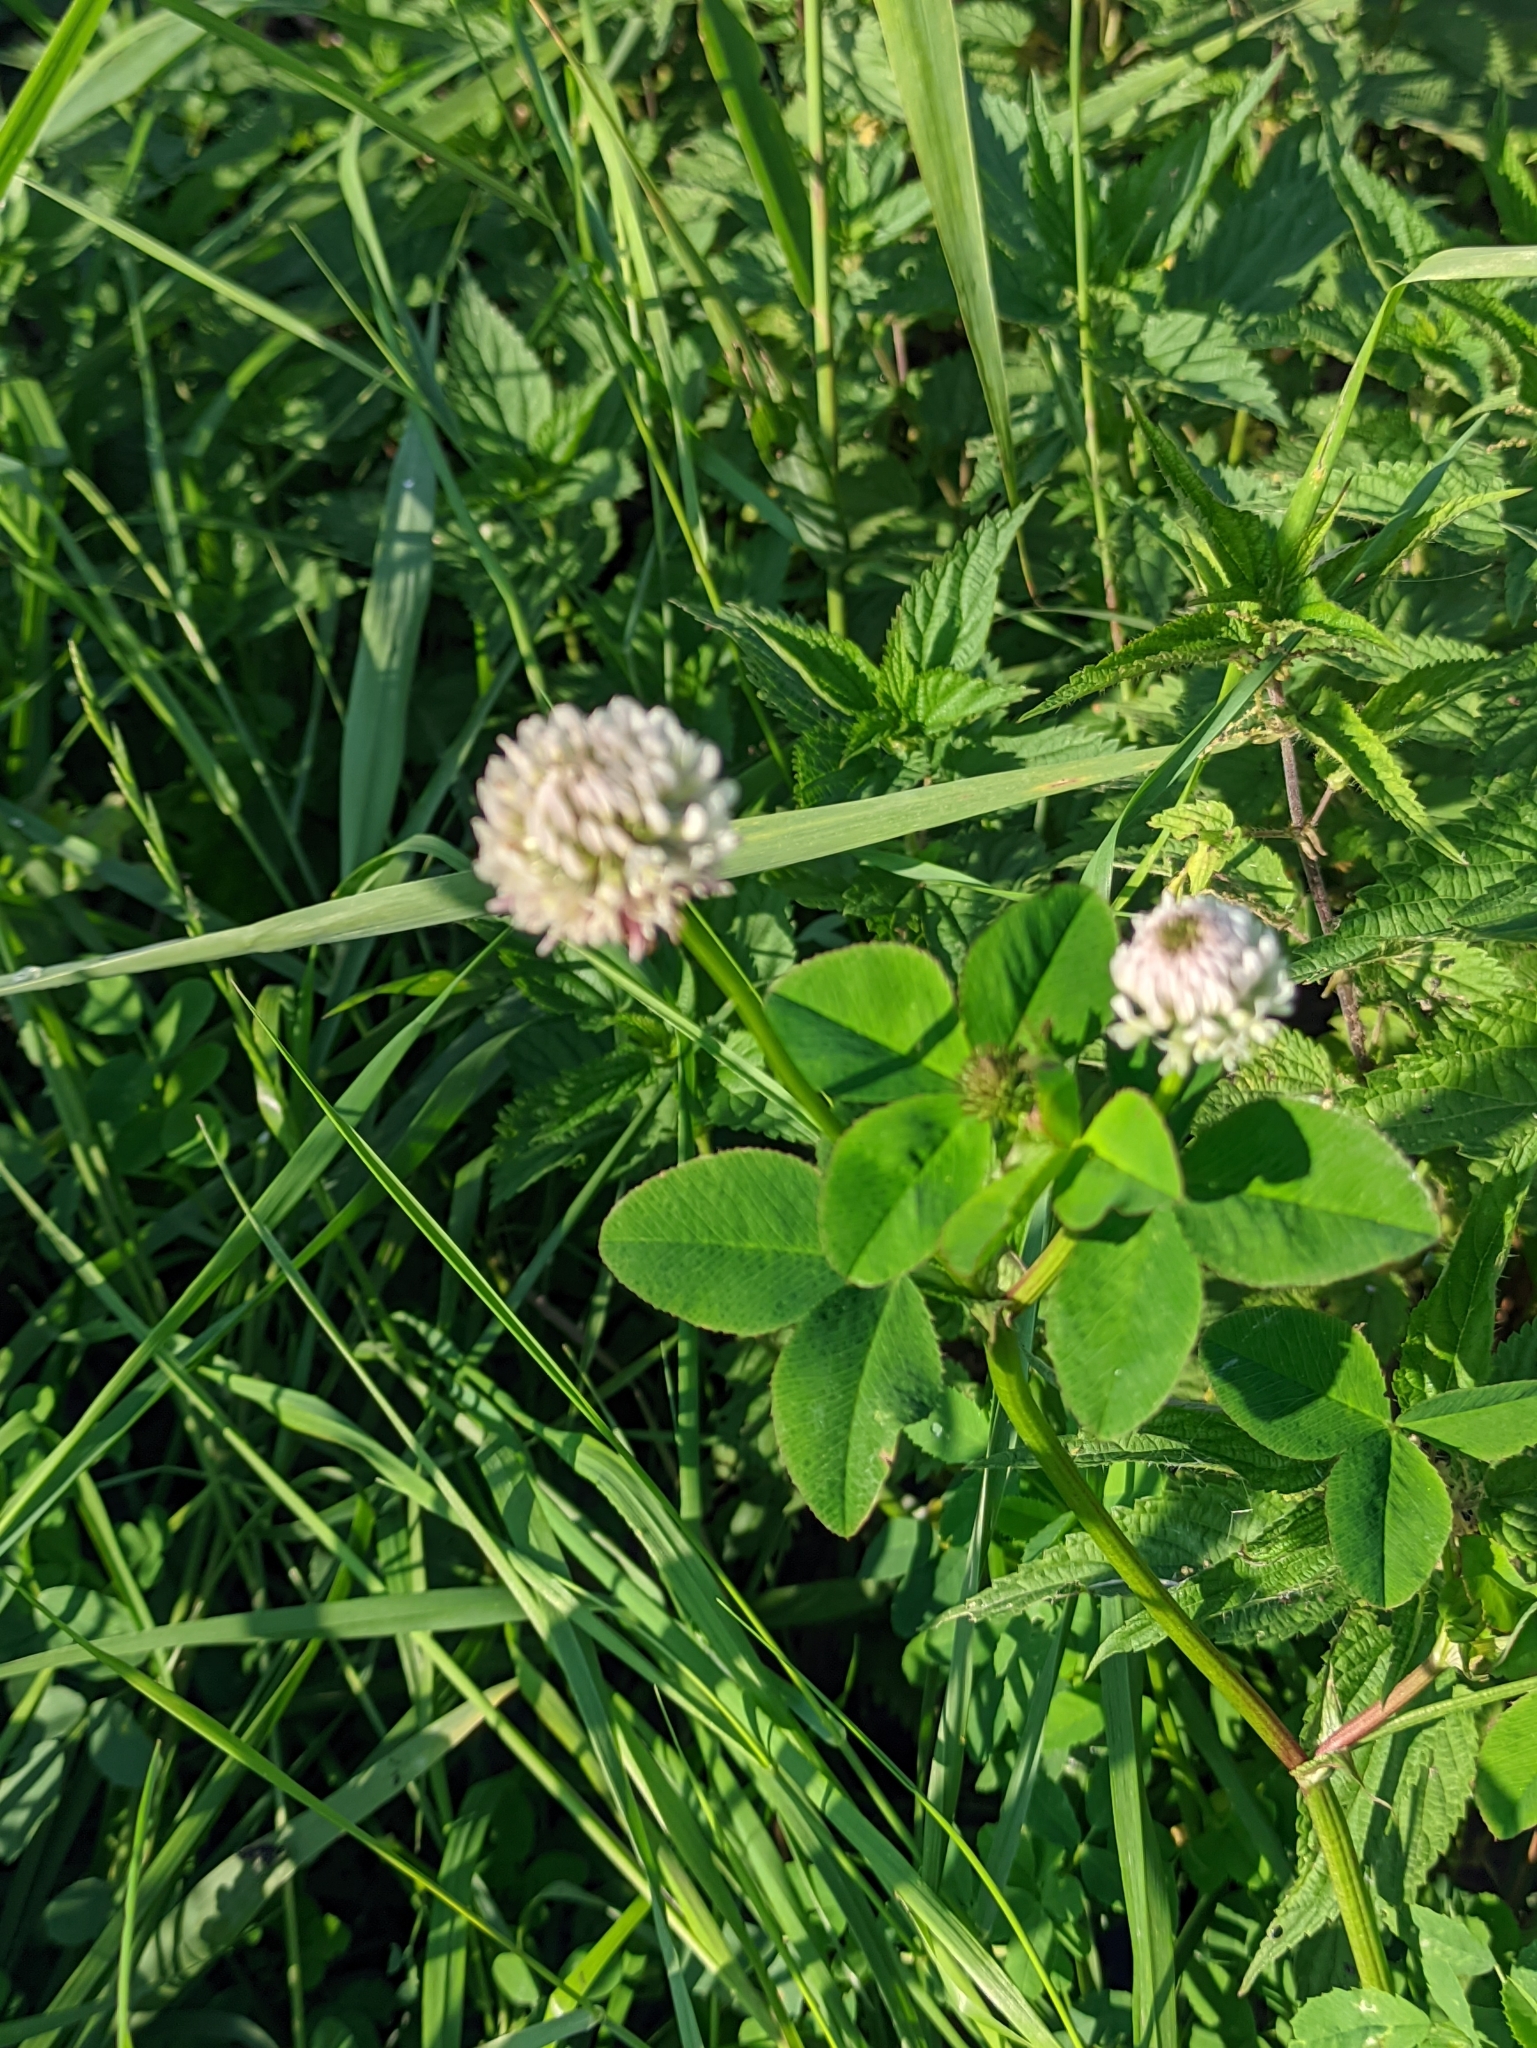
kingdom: Plantae
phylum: Tracheophyta
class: Magnoliopsida
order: Fabales
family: Fabaceae
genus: Trifolium
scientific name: Trifolium hybridum
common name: Alsike clover
